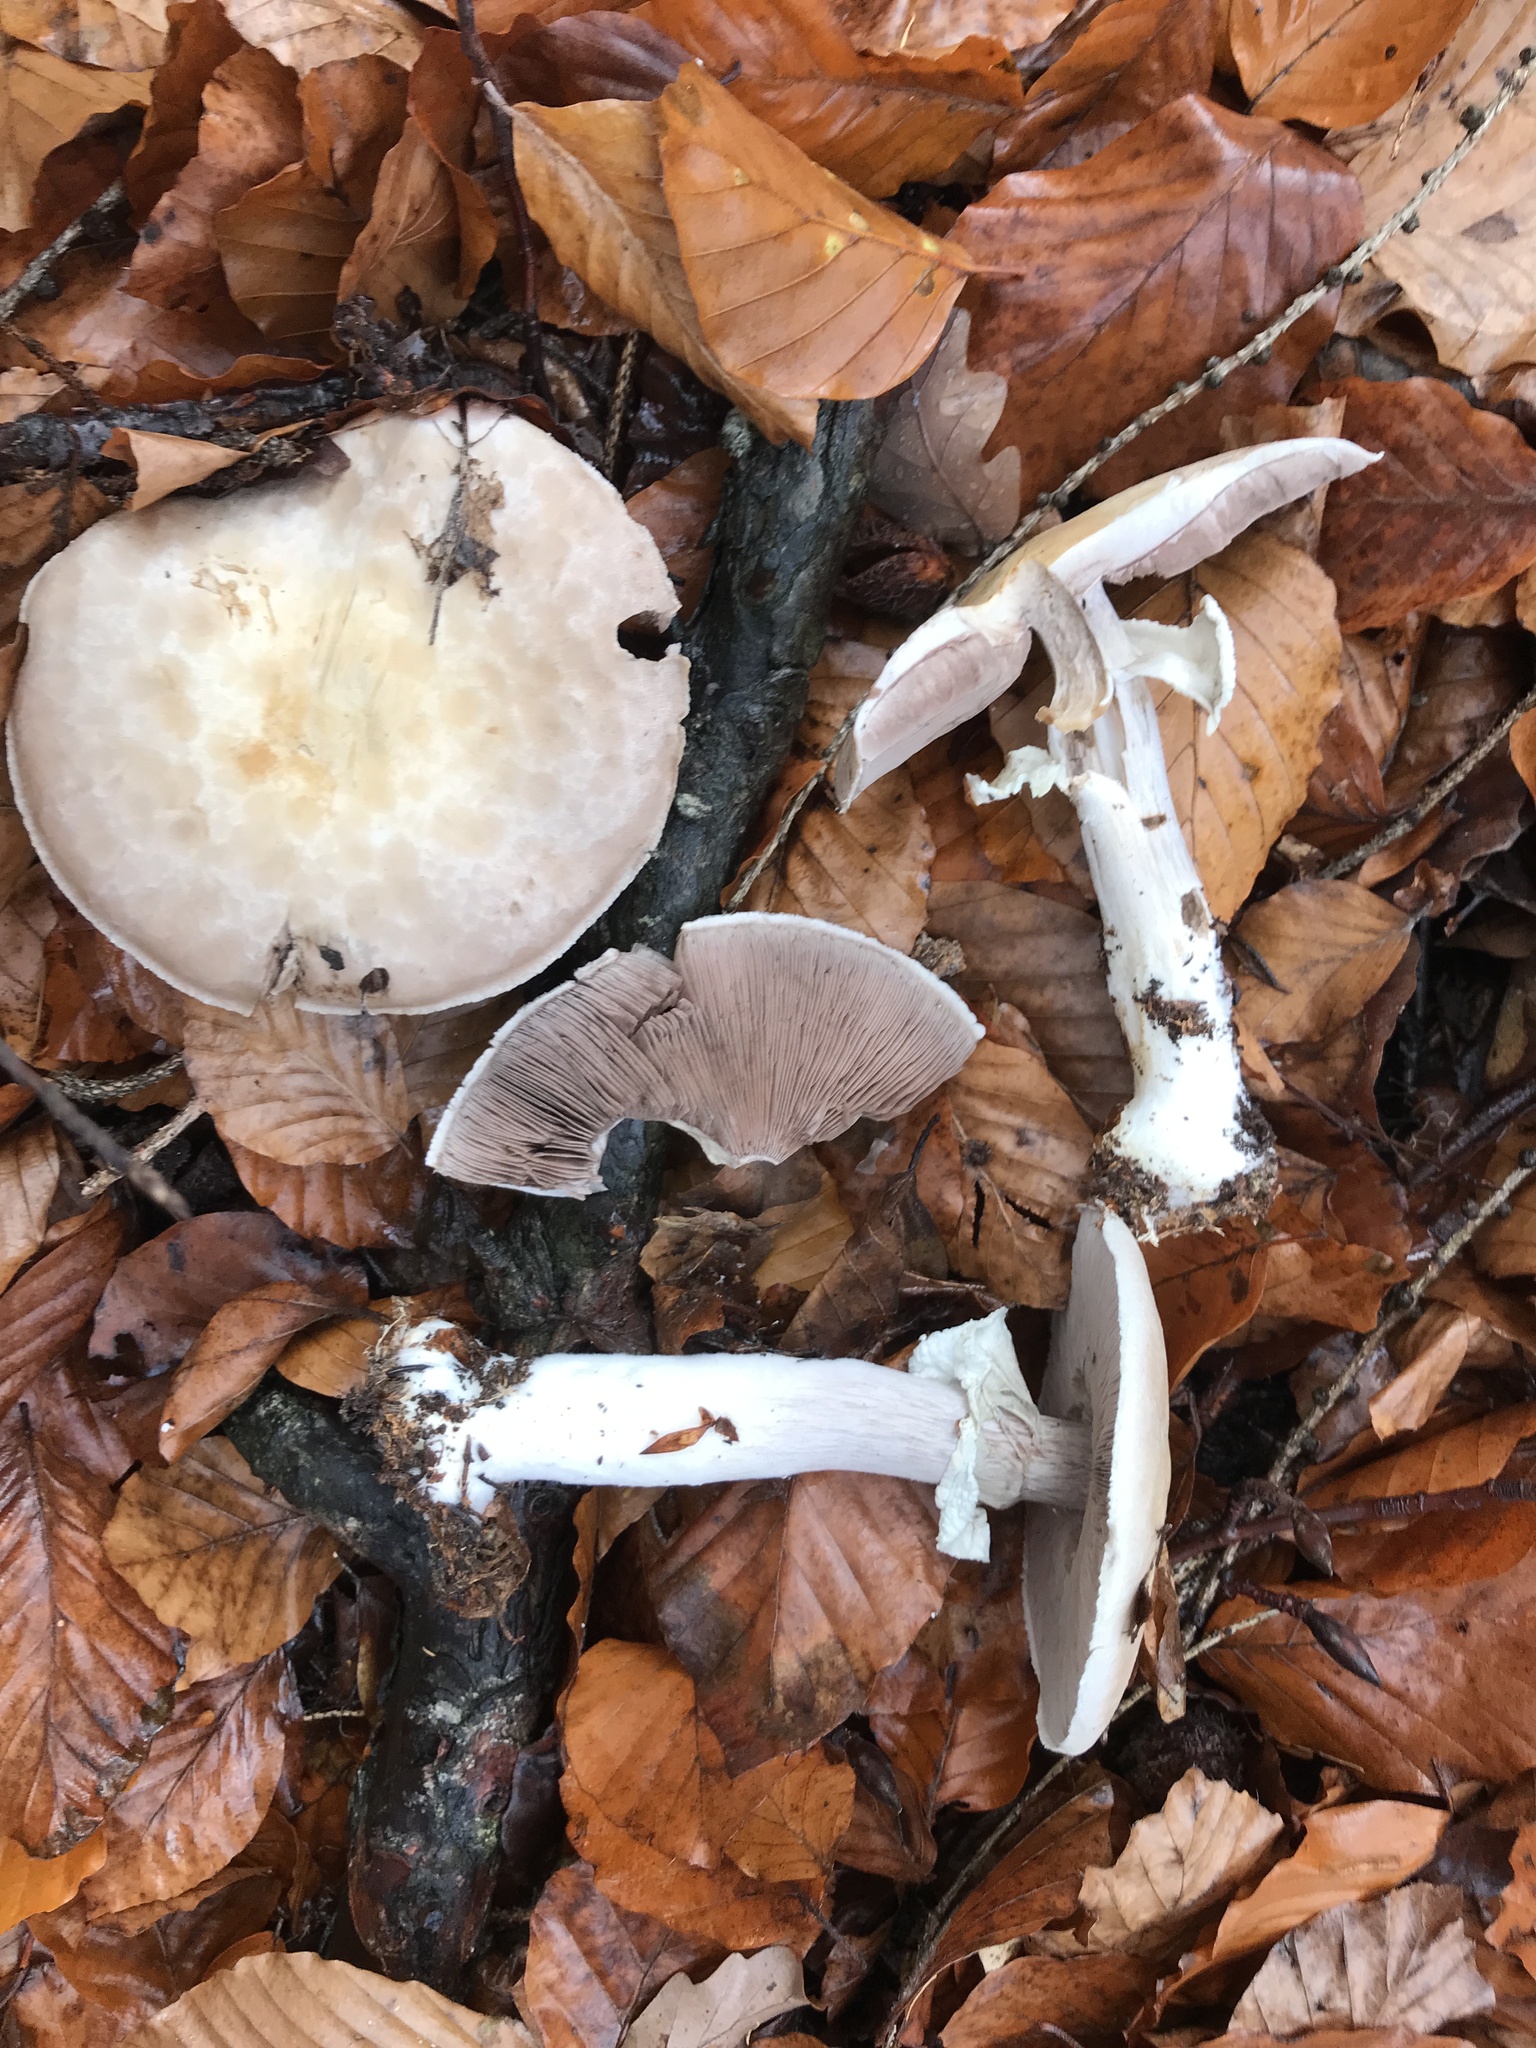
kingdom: Fungi
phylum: Basidiomycota
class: Agaricomycetes
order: Agaricales
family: Agaricaceae
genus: Agaricus
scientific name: Agaricus sylvicola
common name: Wood mushroom
